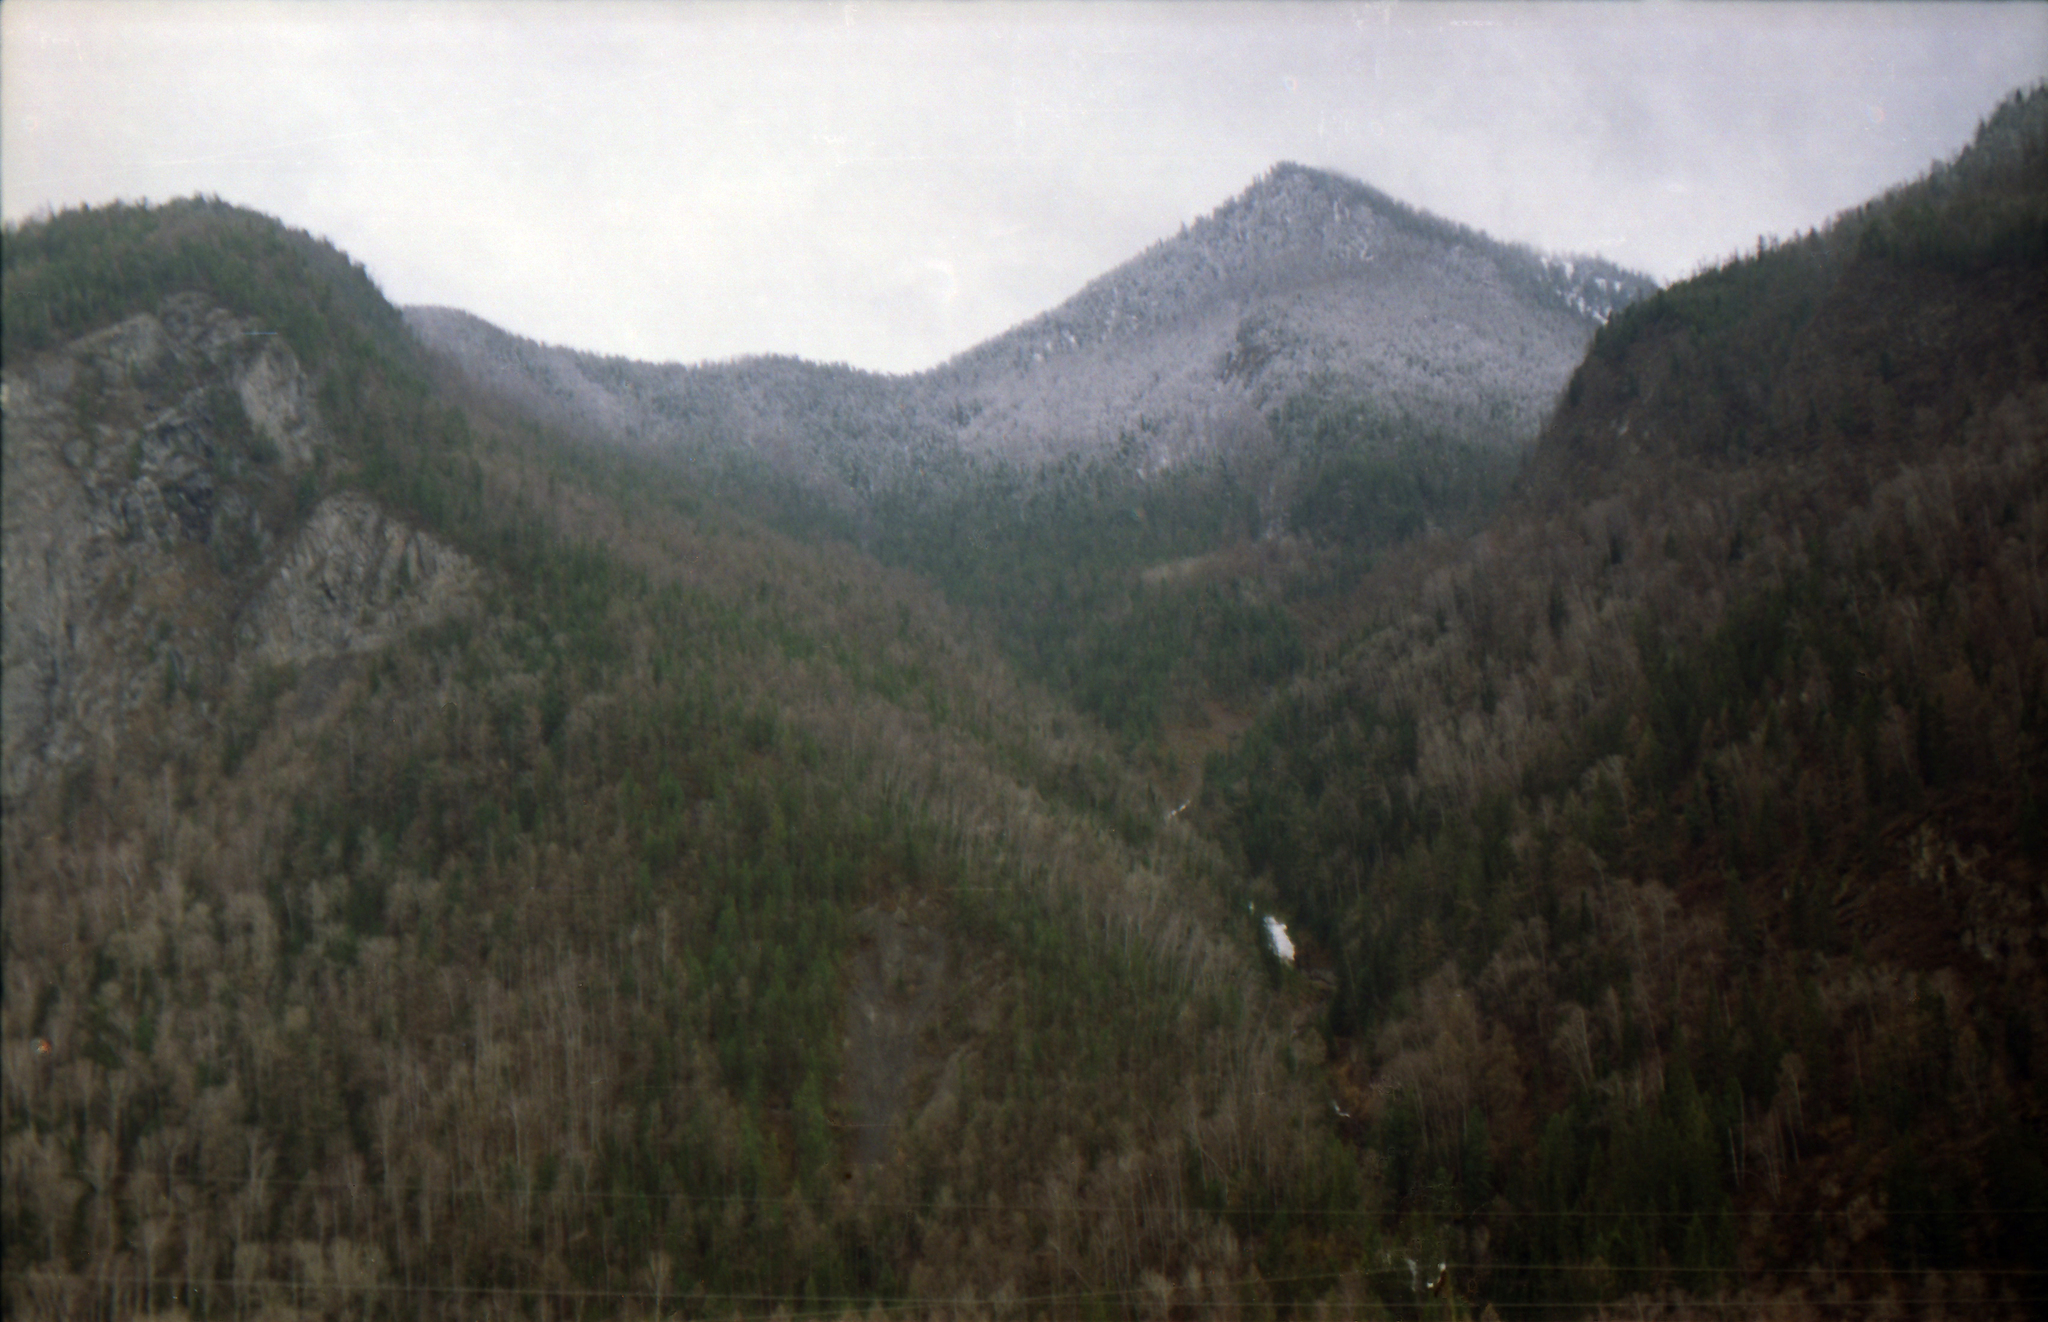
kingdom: Plantae
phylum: Tracheophyta
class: Pinopsida
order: Pinales
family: Pinaceae
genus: Larix
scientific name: Larix sibirica
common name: Siberian larch
